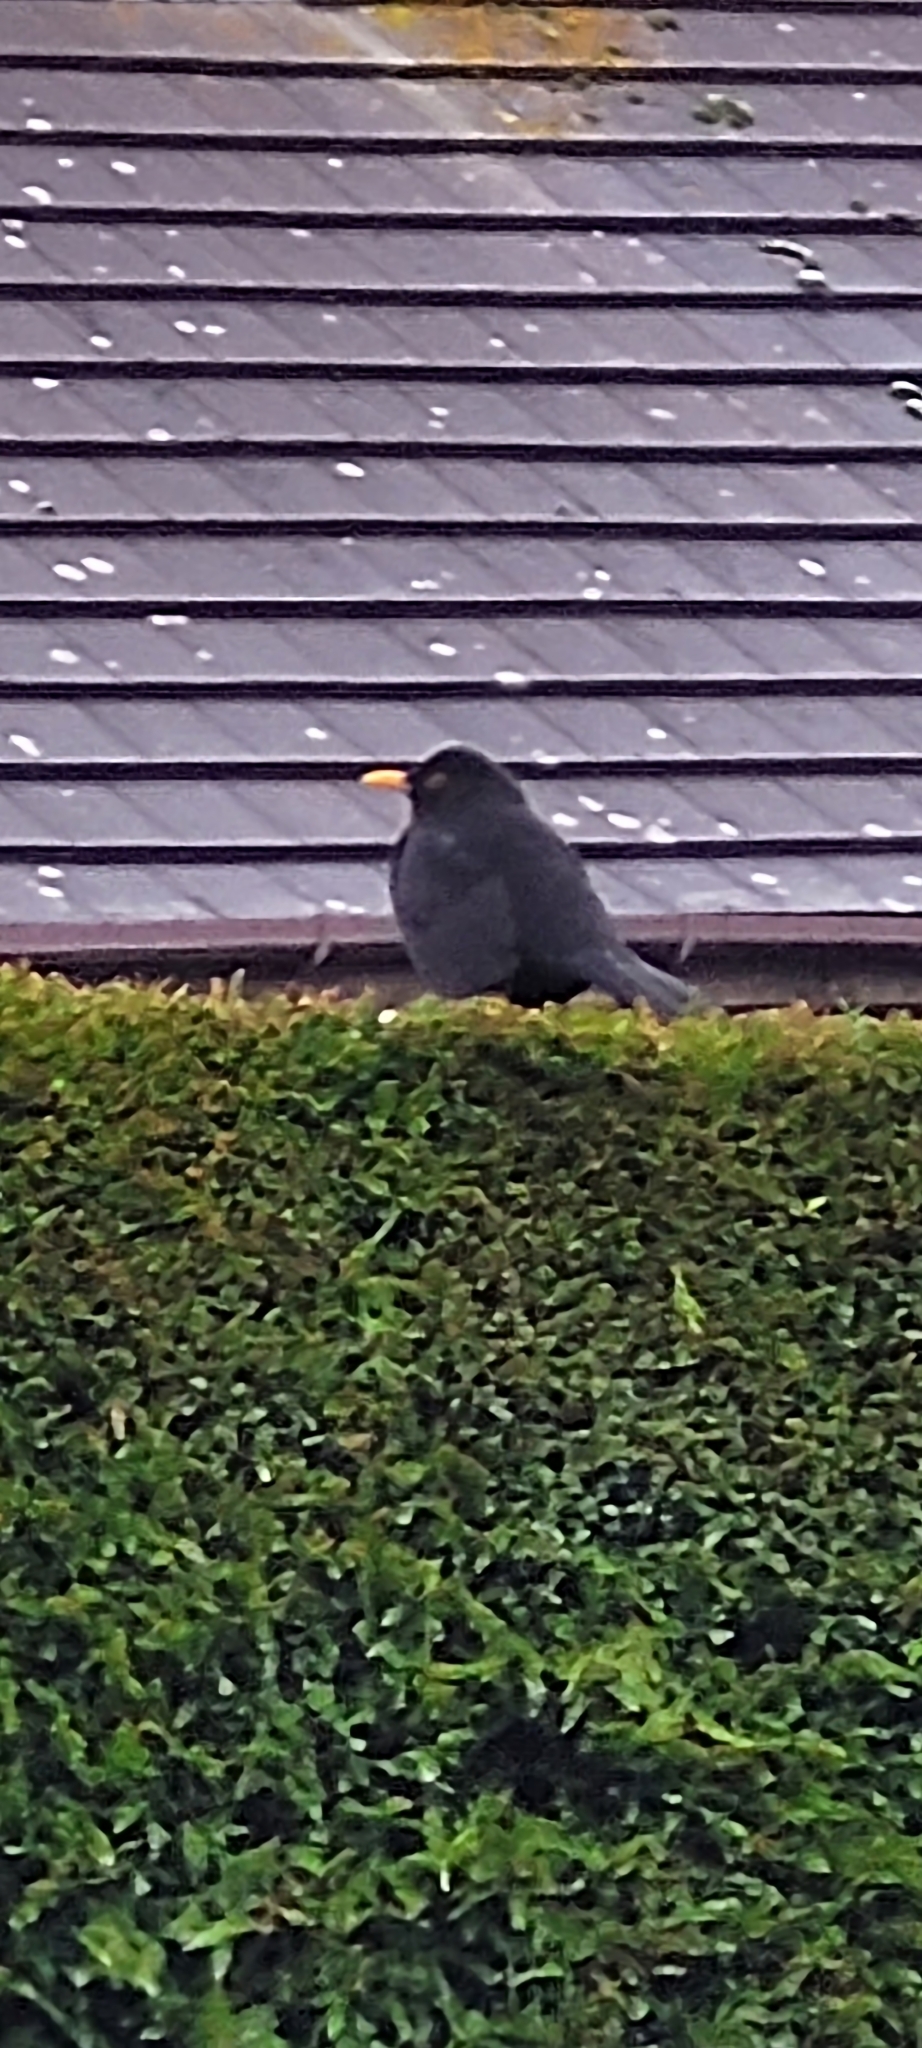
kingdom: Animalia
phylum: Chordata
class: Aves
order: Passeriformes
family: Turdidae
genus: Turdus
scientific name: Turdus merula
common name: Common blackbird
